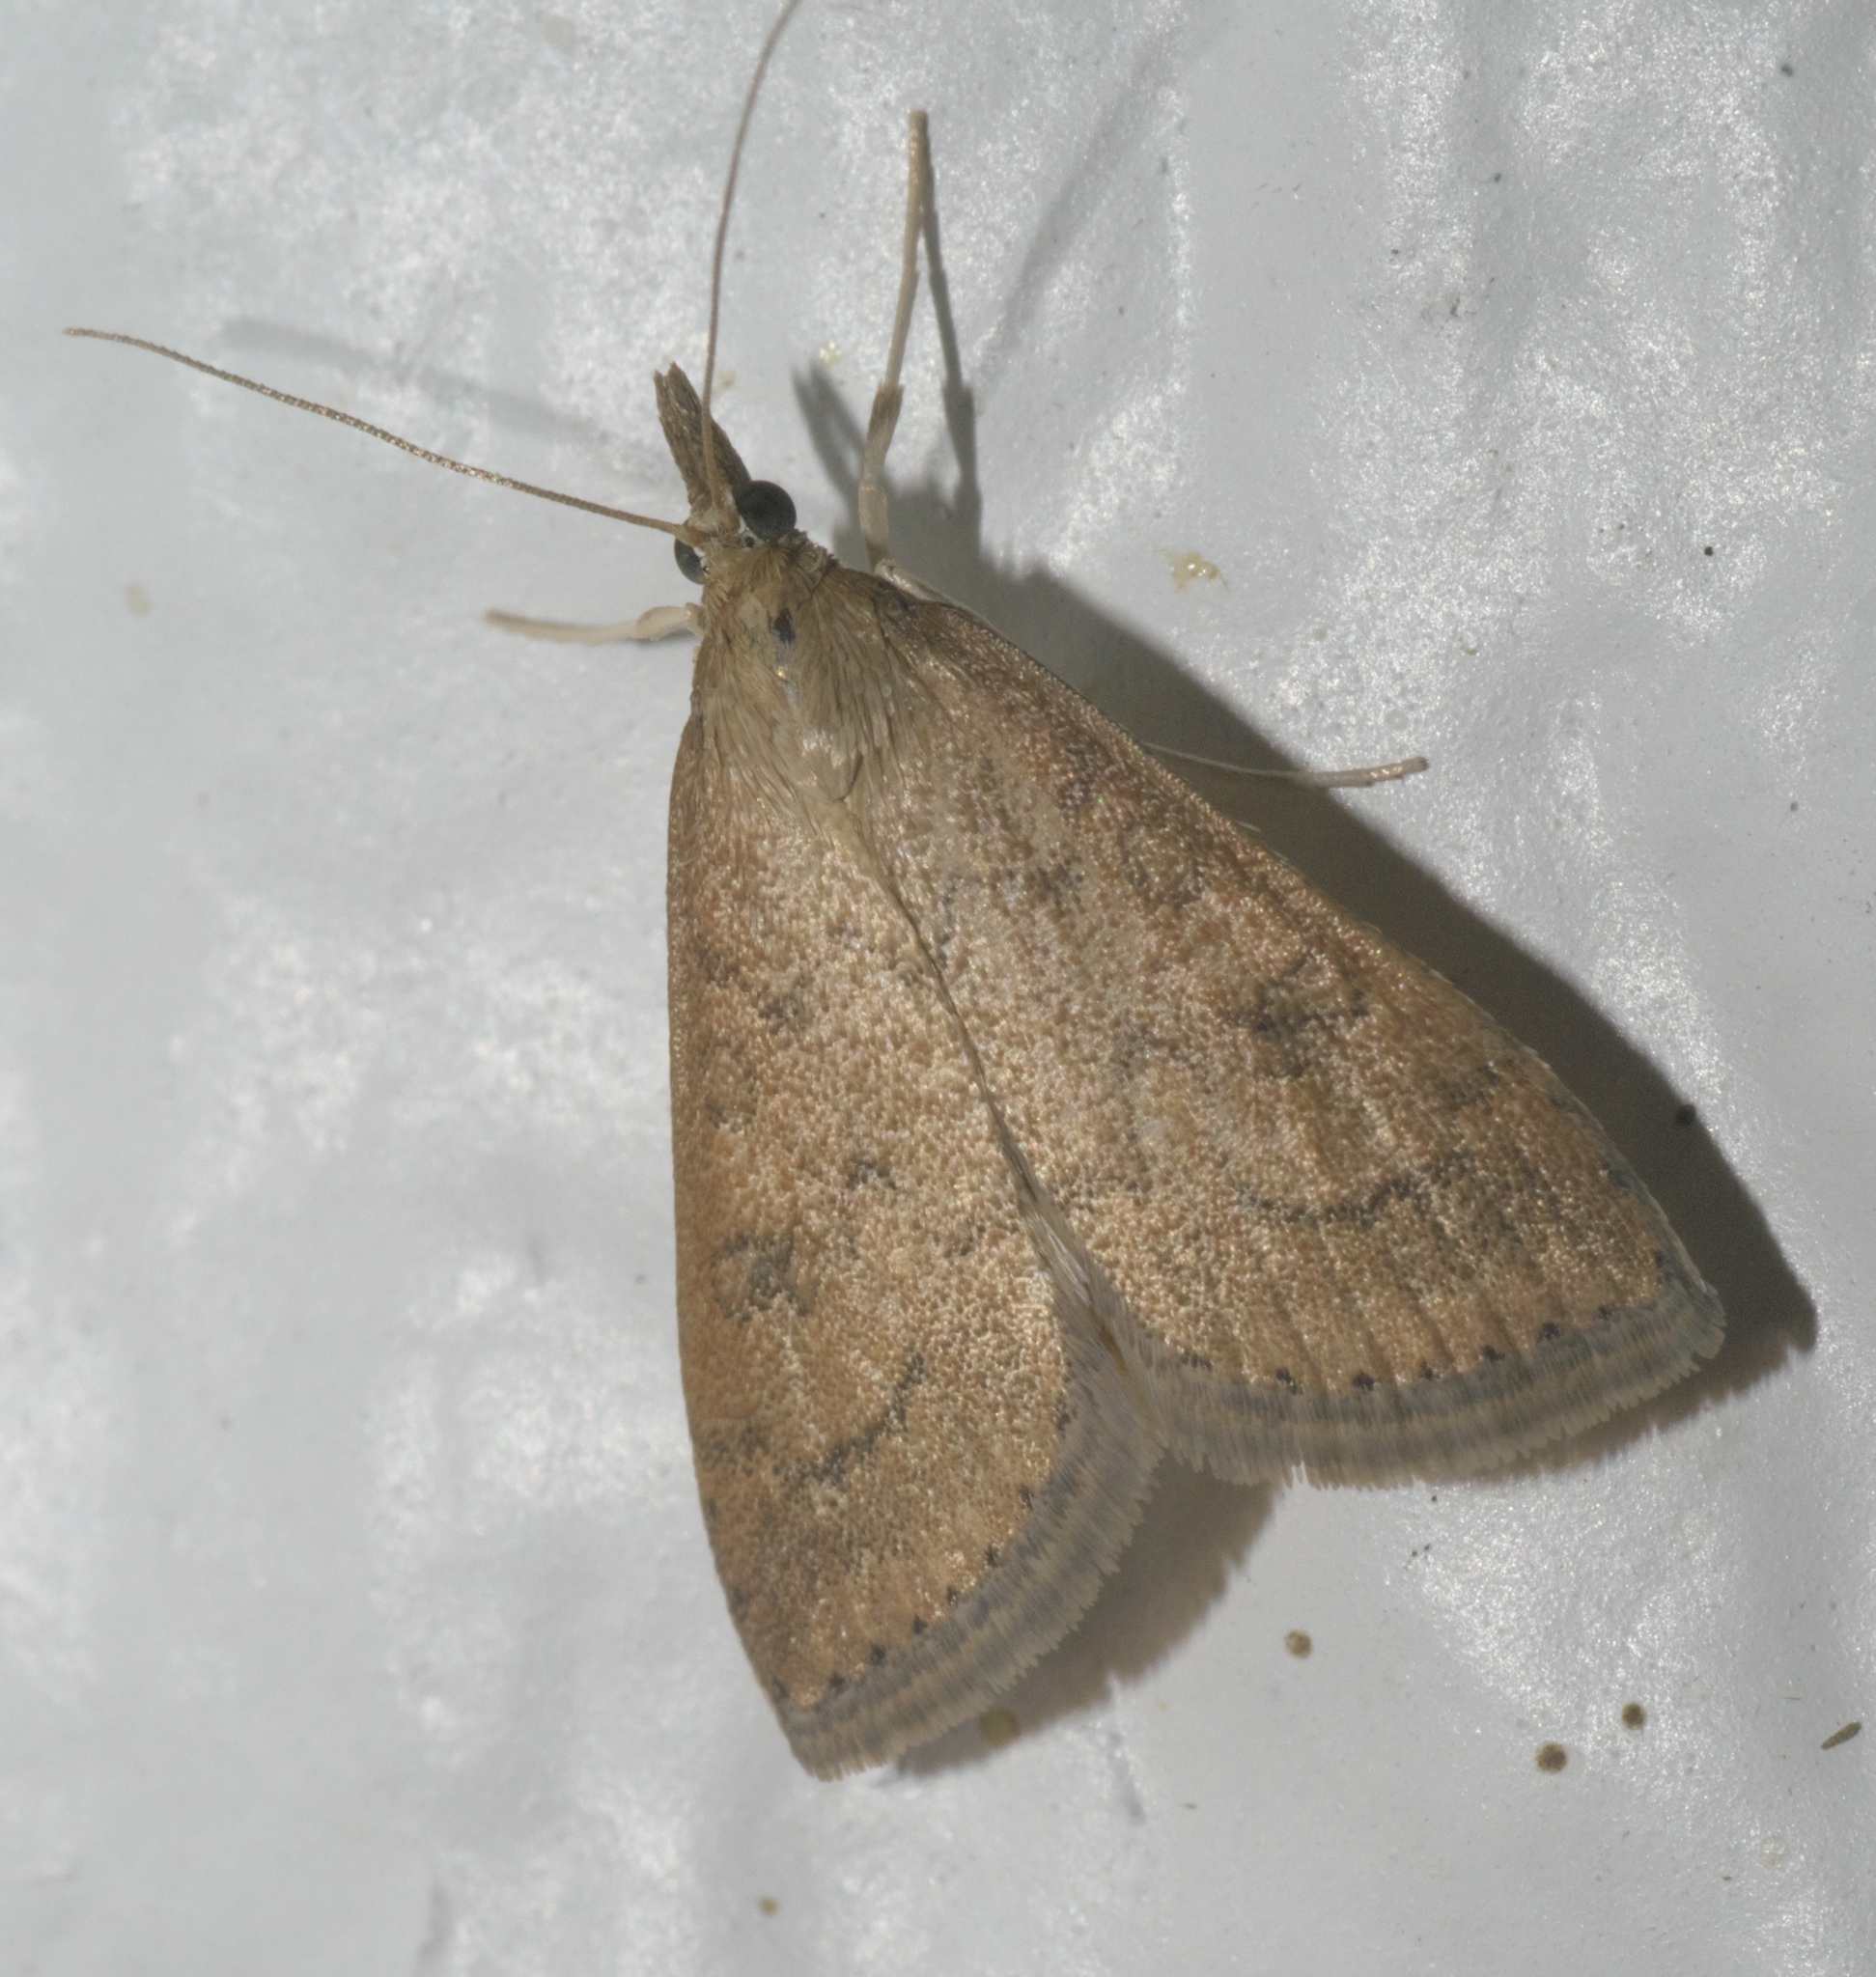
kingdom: Animalia
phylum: Arthropoda
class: Insecta
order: Lepidoptera
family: Crambidae
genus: Udea
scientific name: Udea rubigalis
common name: Celery leaftier moth
